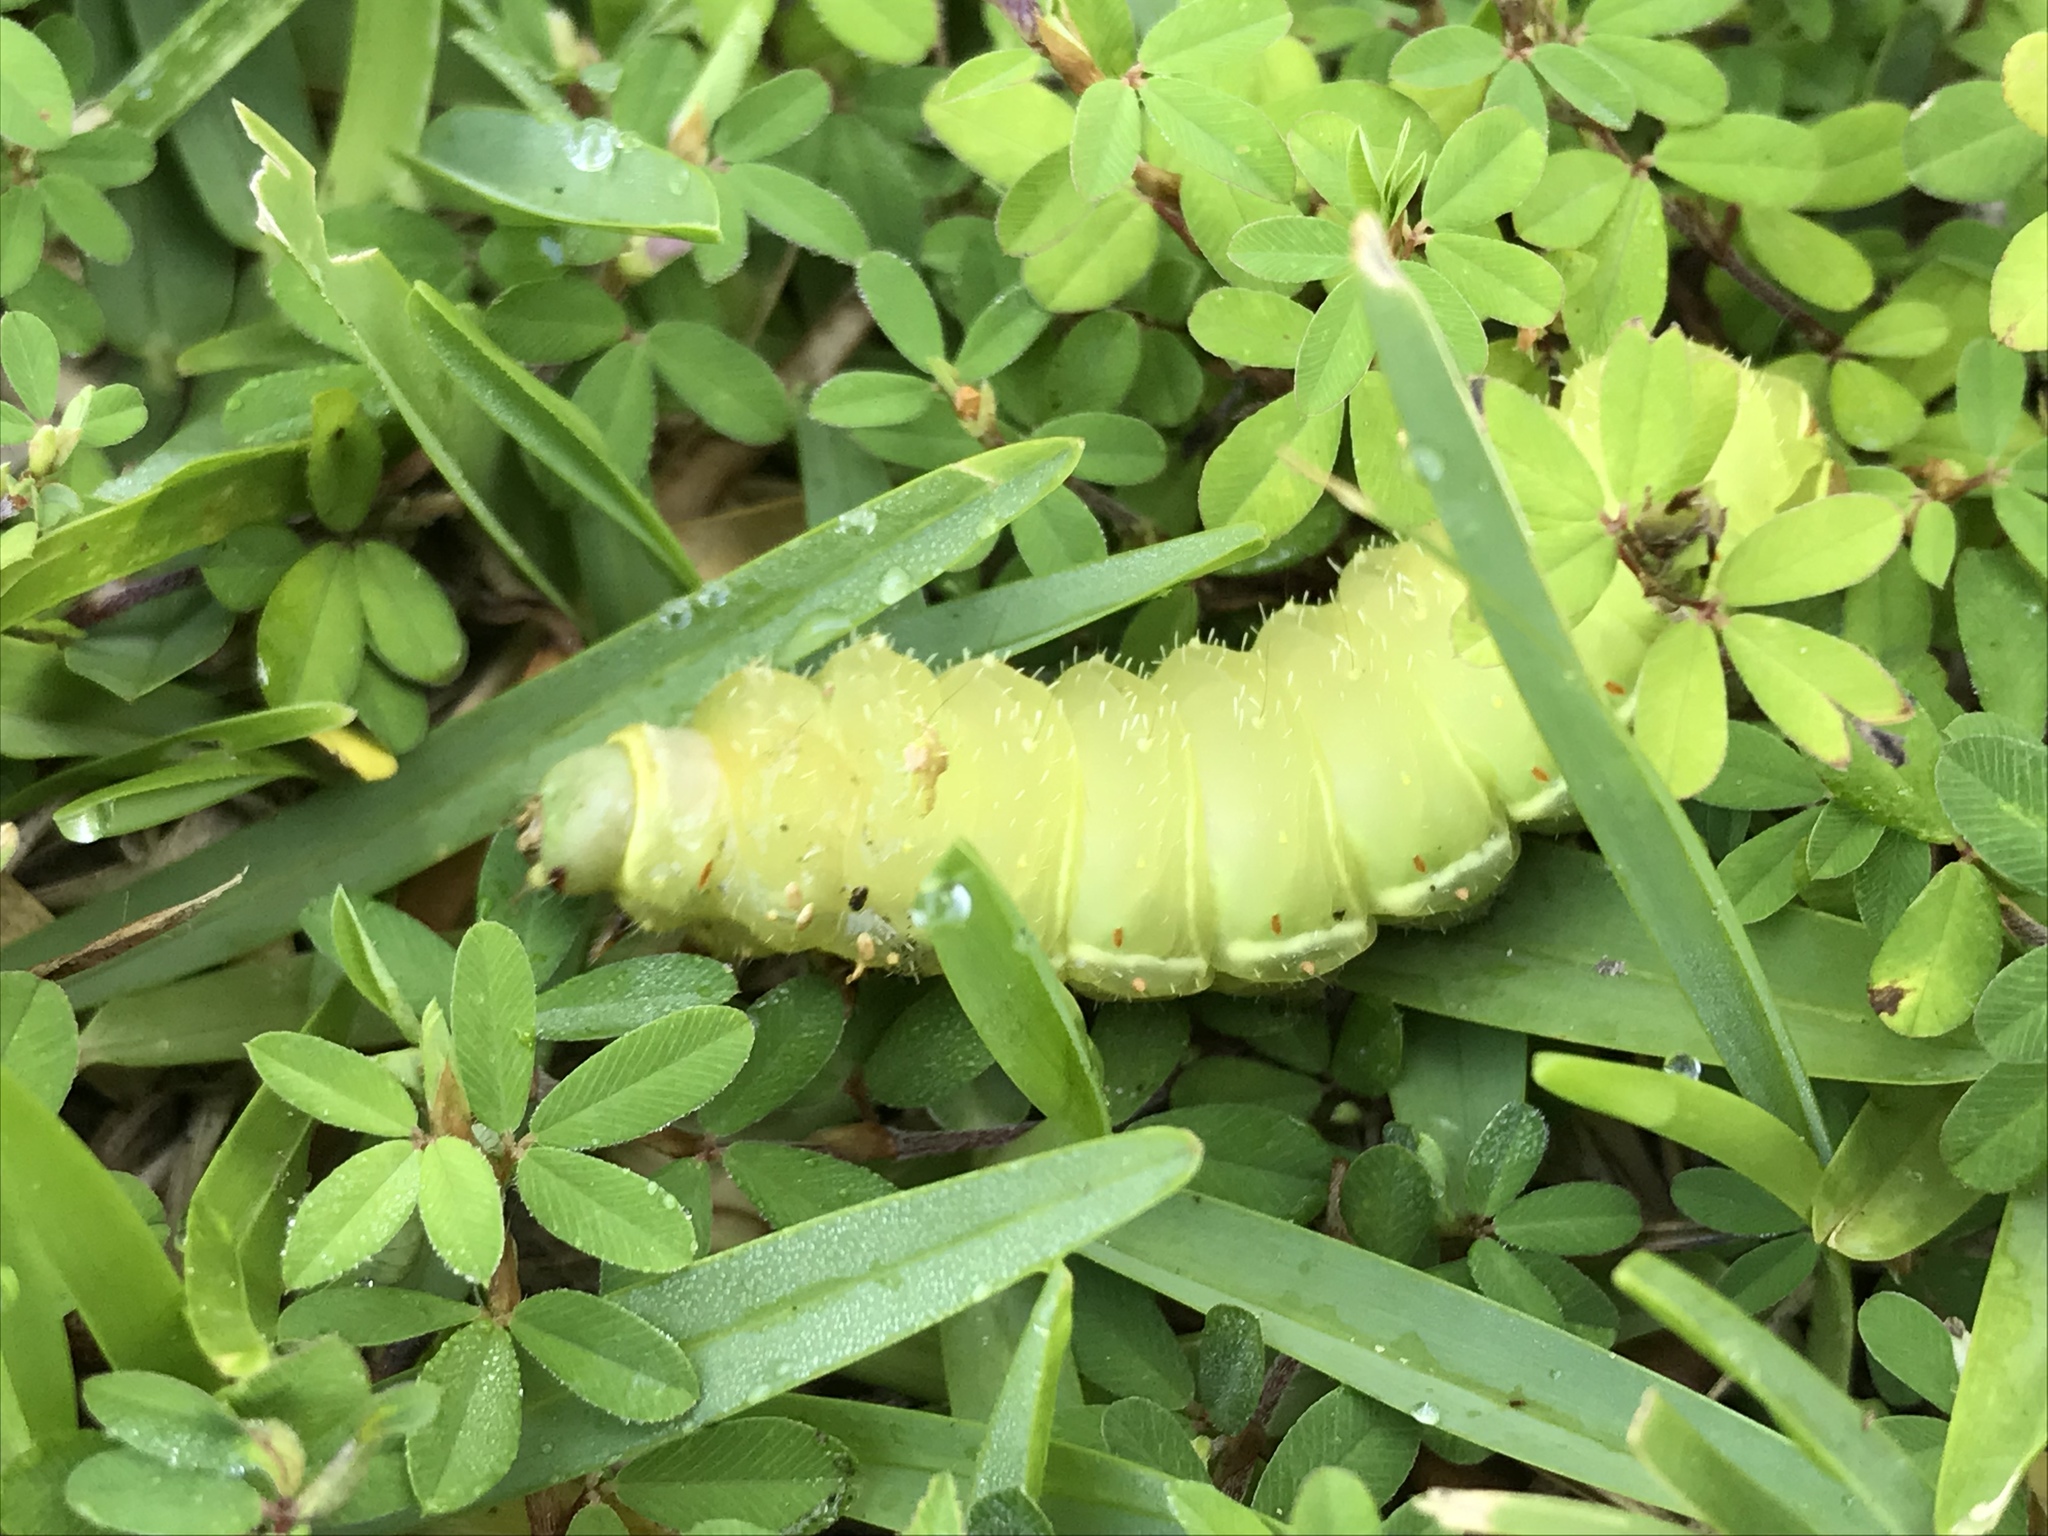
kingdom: Animalia
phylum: Arthropoda
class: Insecta
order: Lepidoptera
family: Saturniidae
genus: Actias
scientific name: Actias luna
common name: Luna moth
